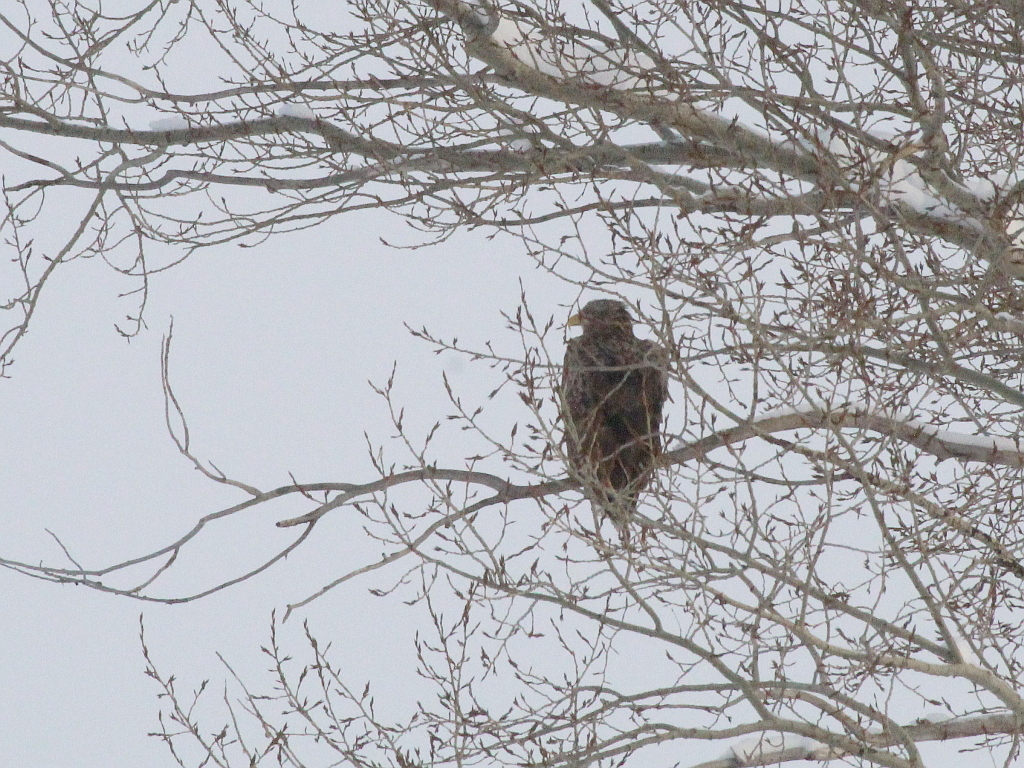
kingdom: Animalia
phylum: Chordata
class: Aves
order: Accipitriformes
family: Accipitridae
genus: Haliaeetus
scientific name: Haliaeetus albicilla
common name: White-tailed eagle
